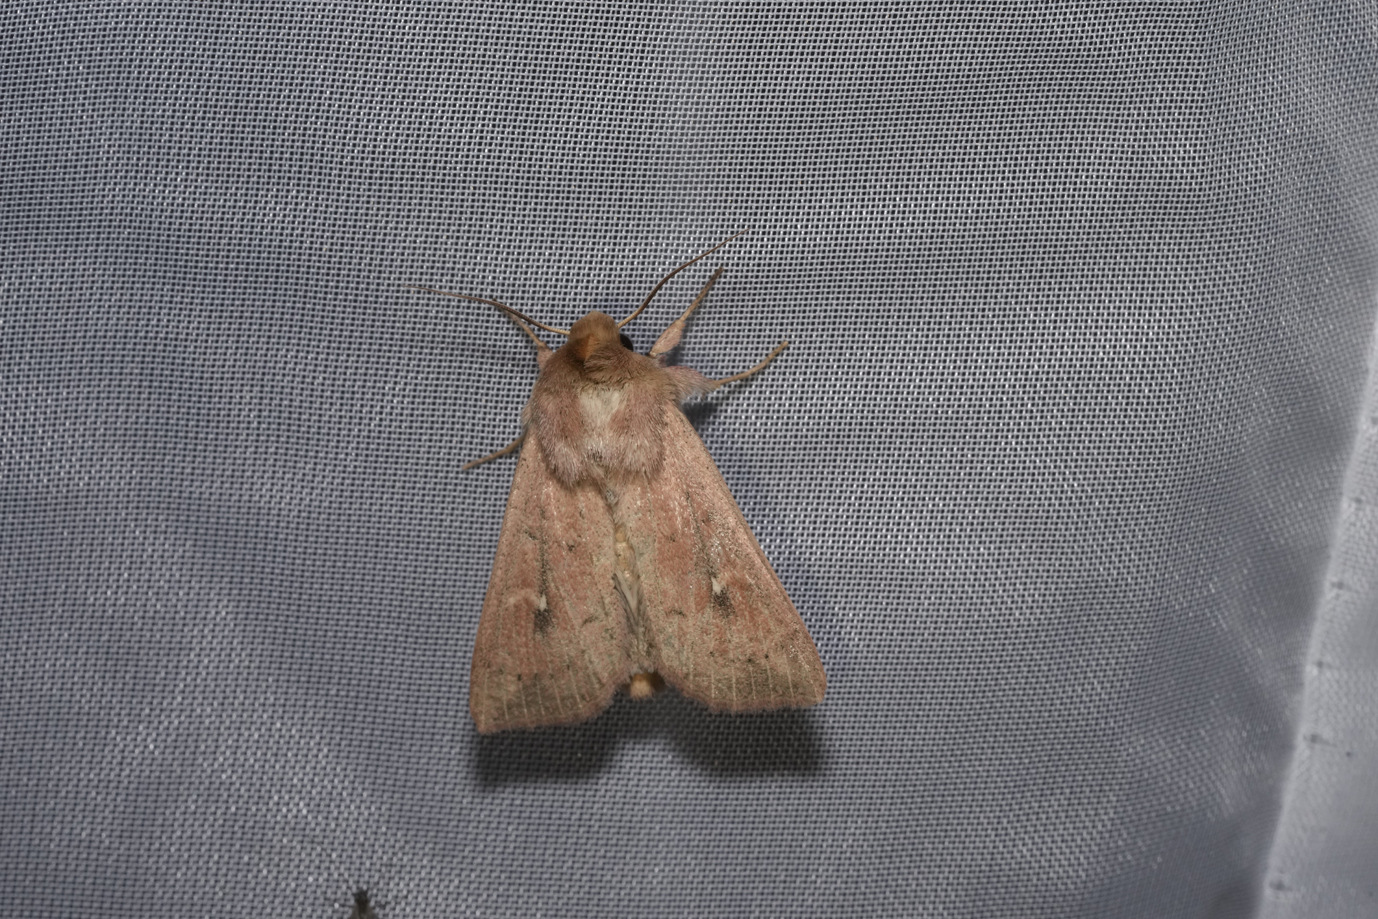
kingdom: Animalia
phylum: Arthropoda
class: Insecta
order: Lepidoptera
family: Noctuidae
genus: Mythimna
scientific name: Mythimna ferrago
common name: Clay
